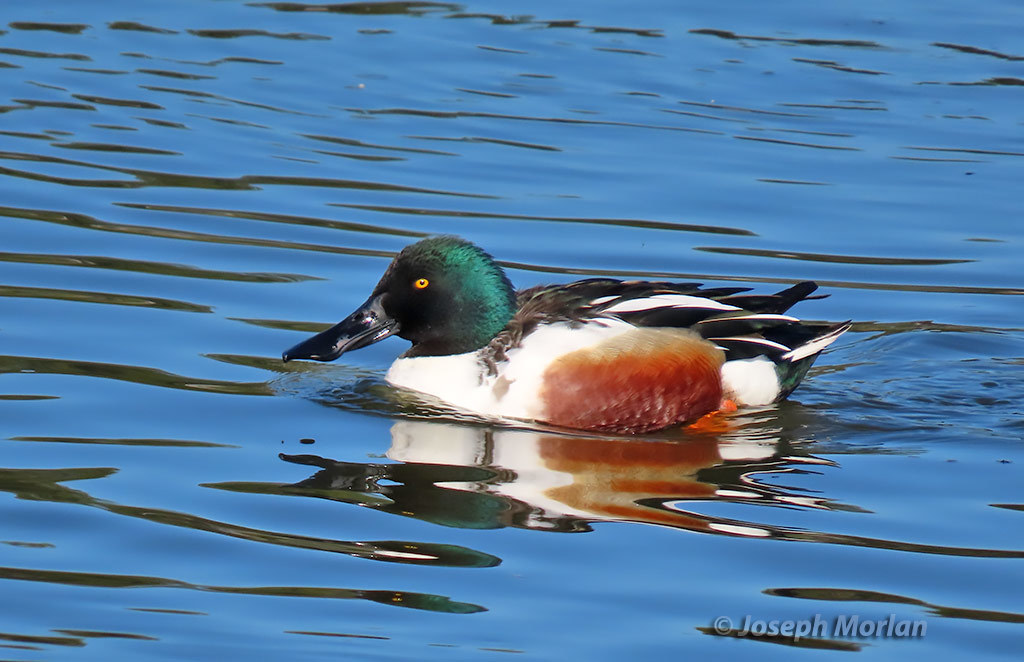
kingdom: Animalia
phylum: Chordata
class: Aves
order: Anseriformes
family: Anatidae
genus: Spatula
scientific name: Spatula clypeata
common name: Northern shoveler
